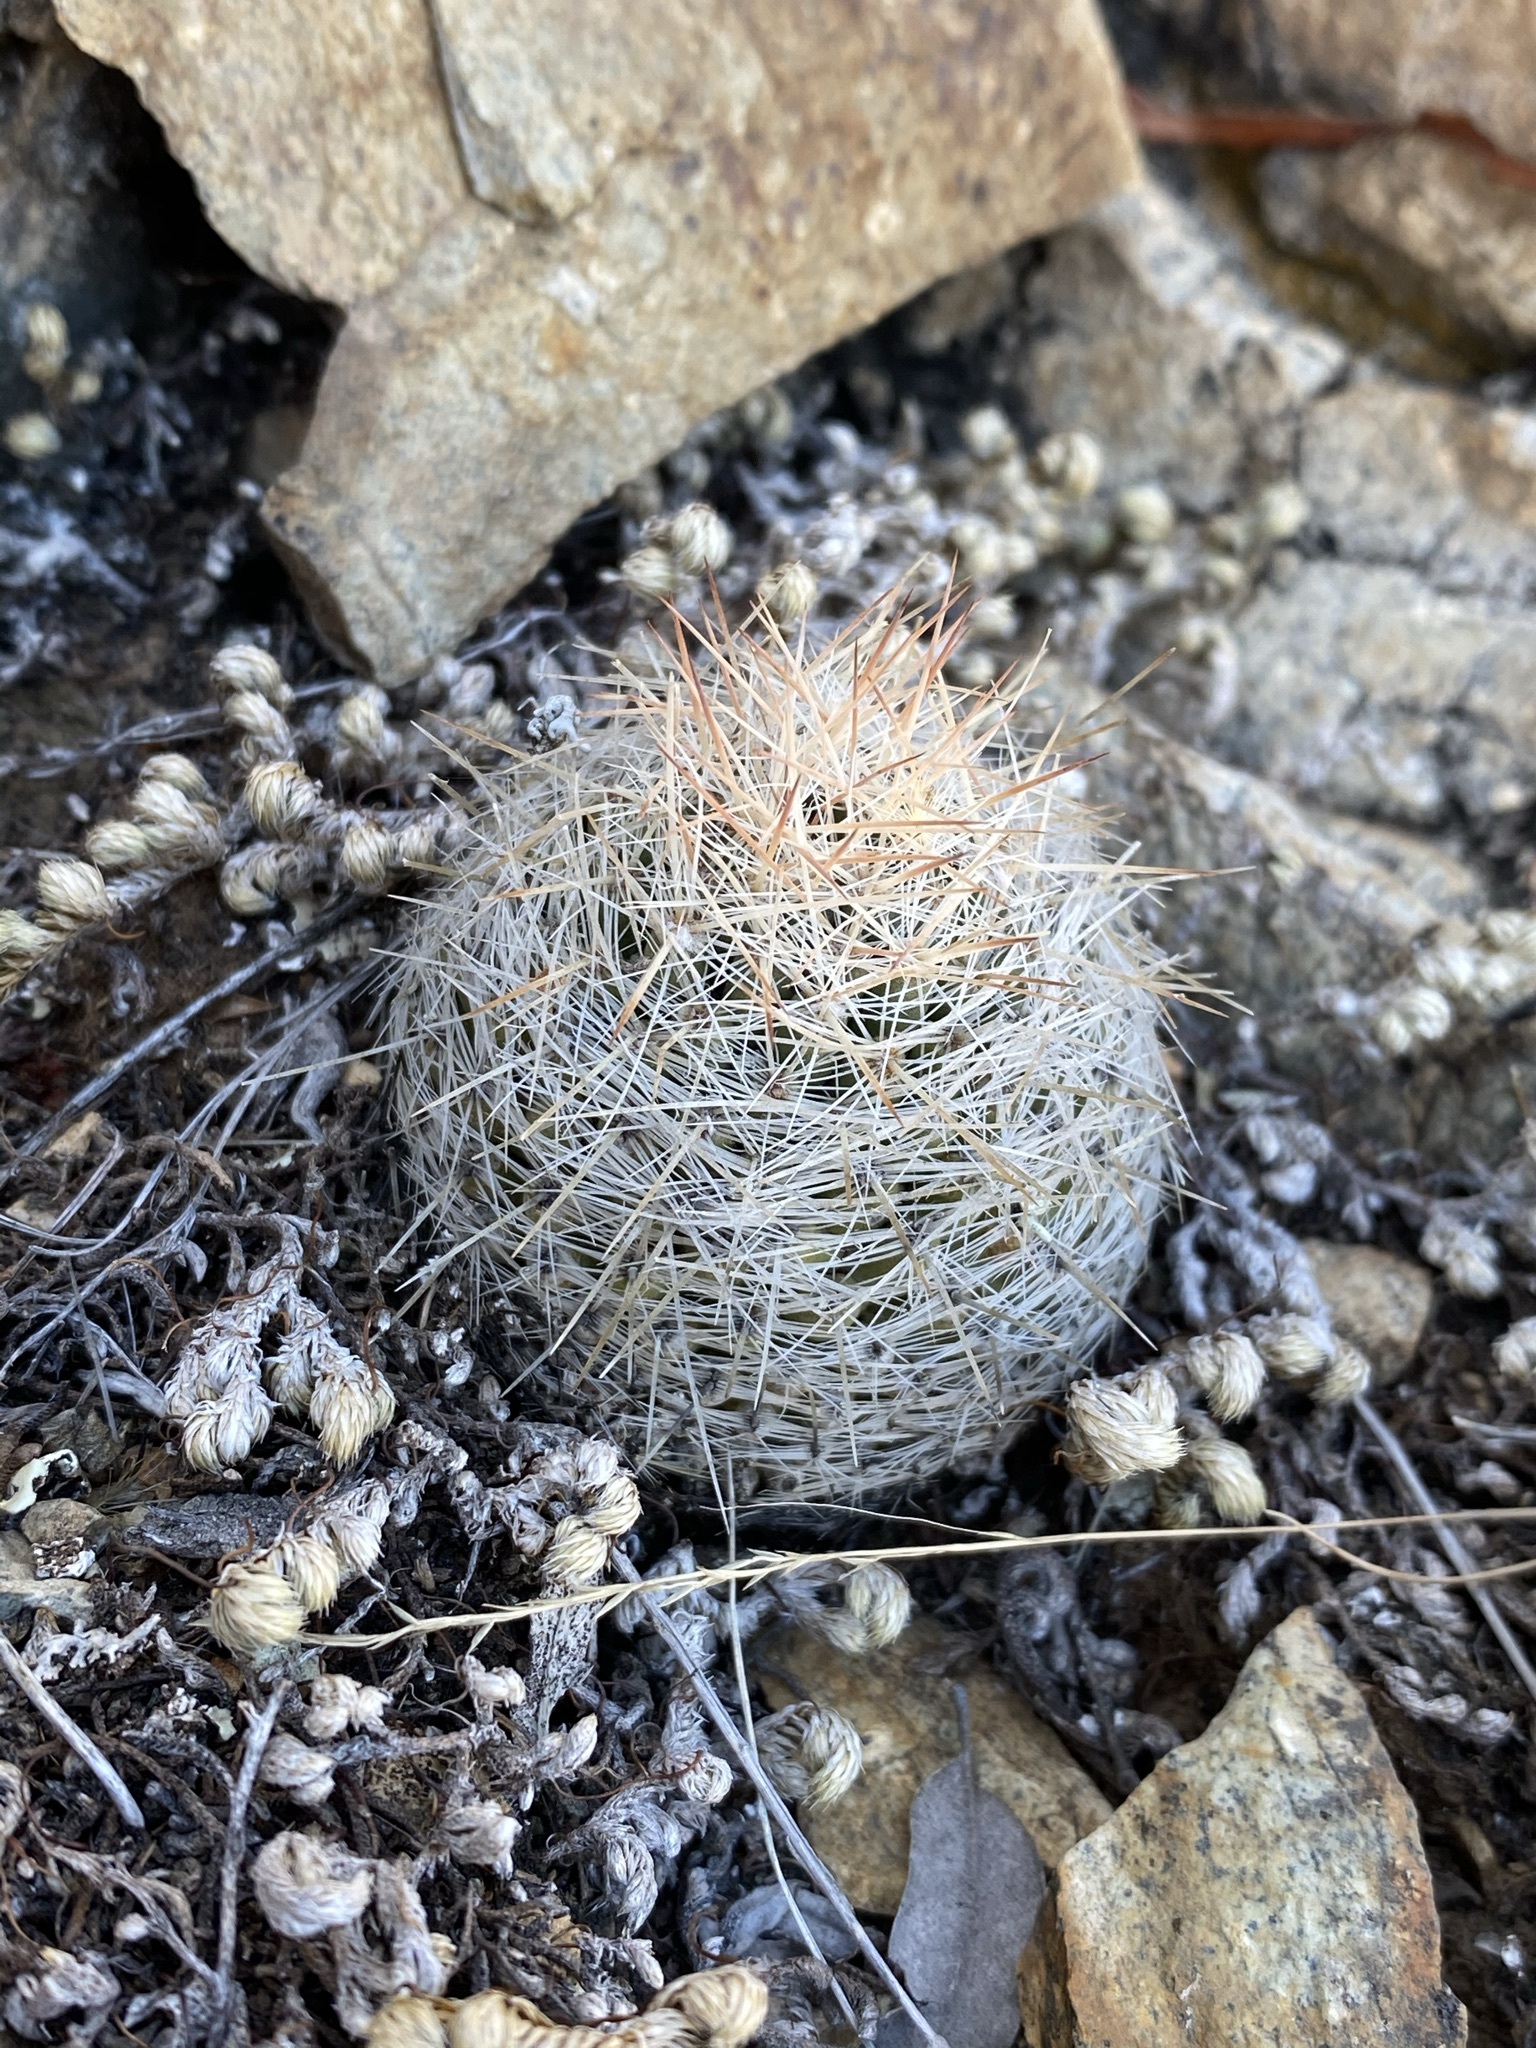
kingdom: Plantae
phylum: Tracheophyta
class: Magnoliopsida
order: Caryophyllales
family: Cactaceae
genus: Pelecyphora
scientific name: Pelecyphora tuberculosa
